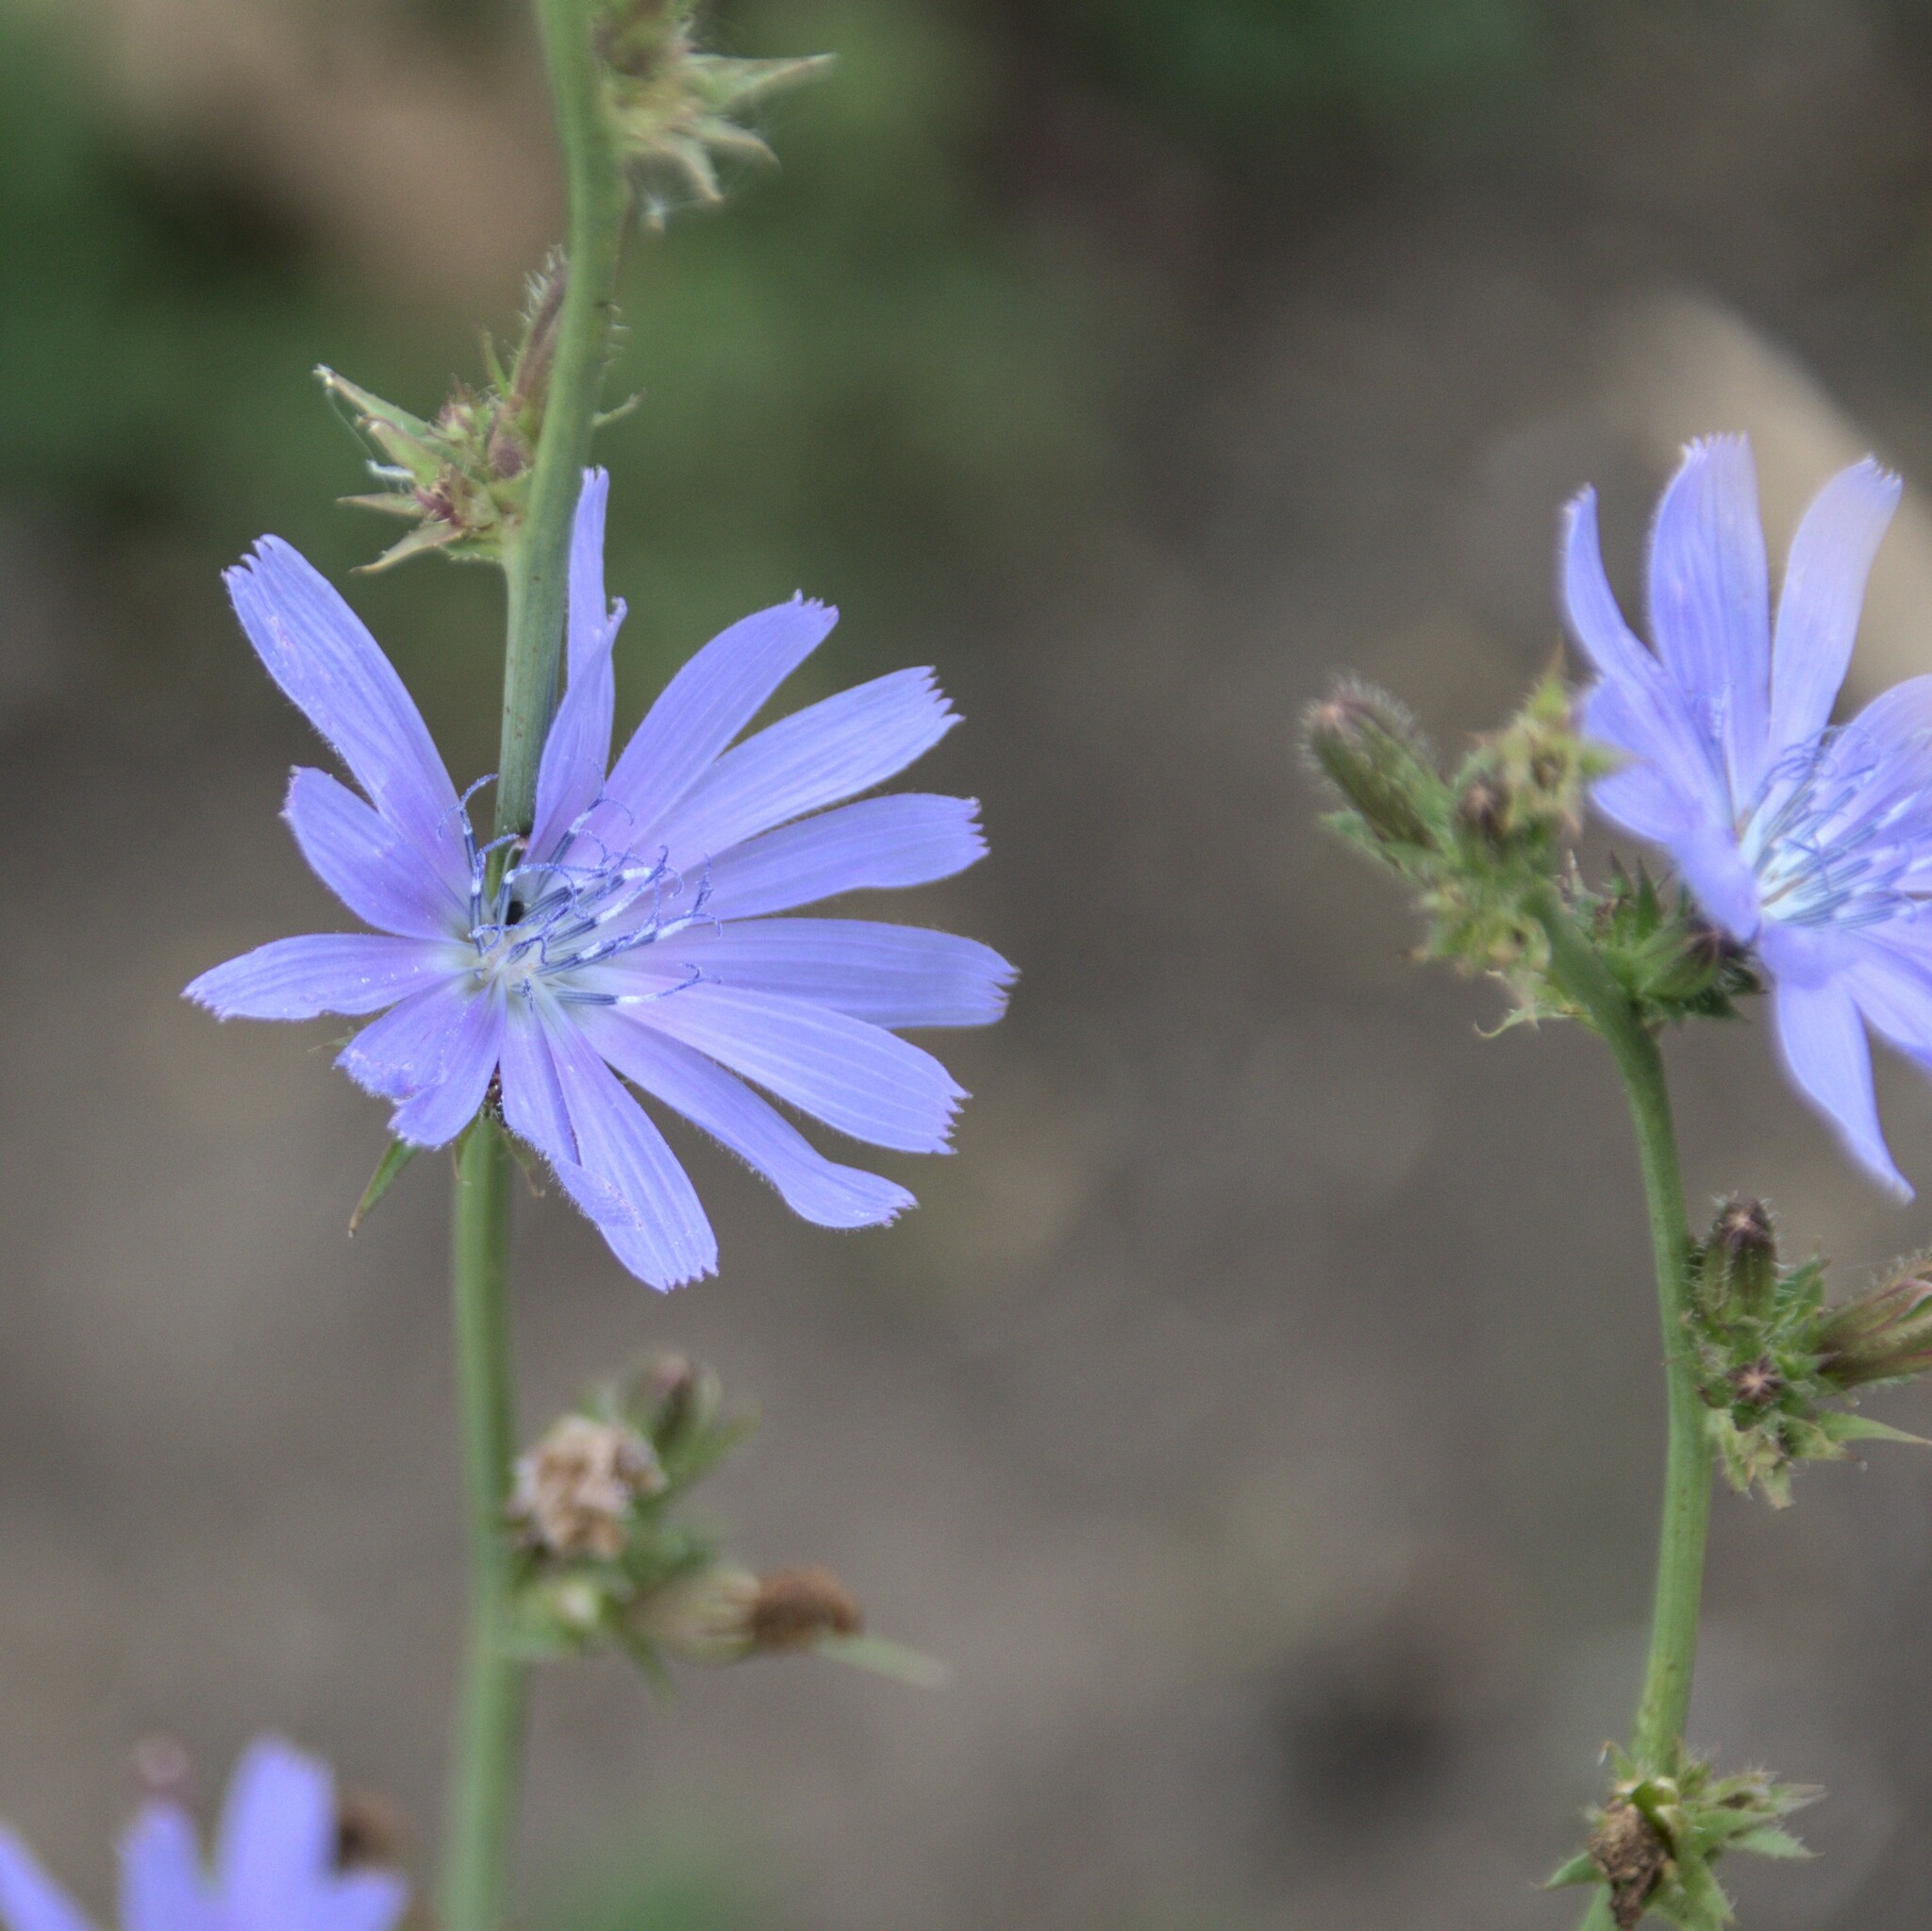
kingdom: Plantae
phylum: Tracheophyta
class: Magnoliopsida
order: Asterales
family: Asteraceae
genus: Cichorium
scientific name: Cichorium intybus
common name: Chicory
